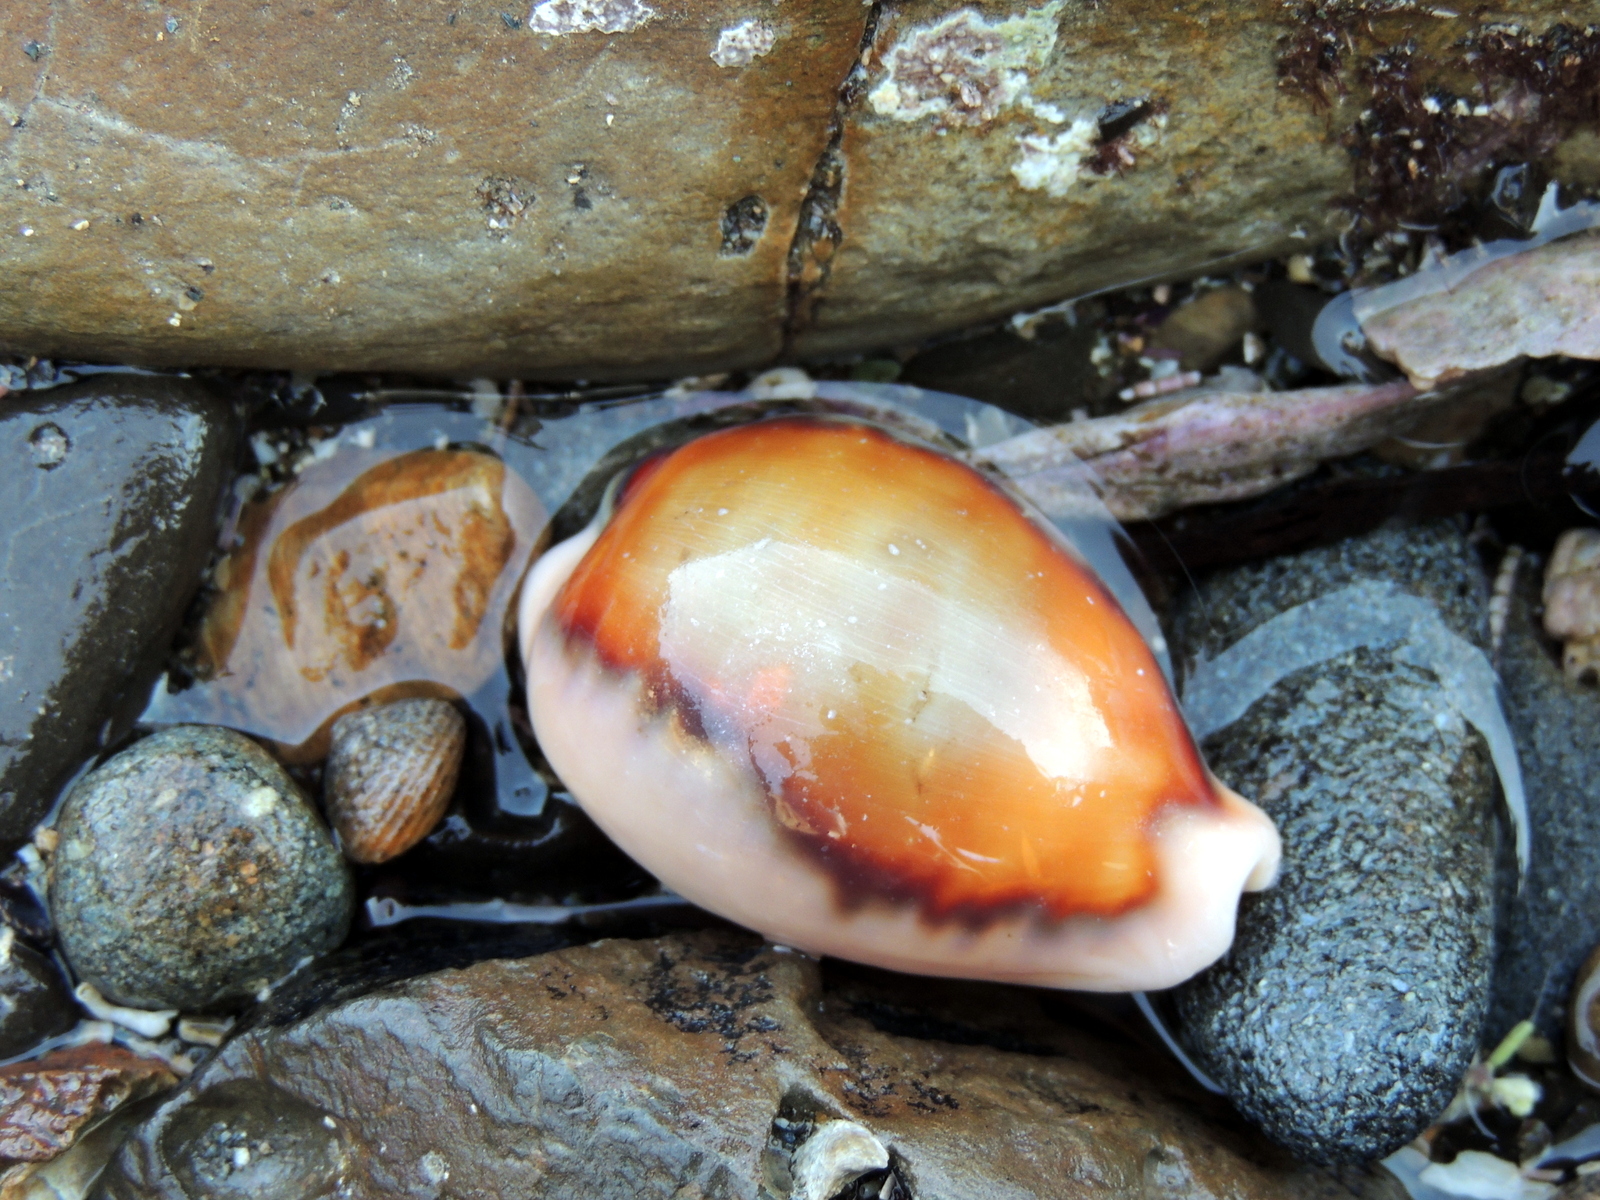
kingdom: Animalia
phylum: Mollusca
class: Gastropoda
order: Littorinimorpha
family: Cypraeidae
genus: Neobernaya
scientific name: Neobernaya spadicea
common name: Chestnut cowrie
